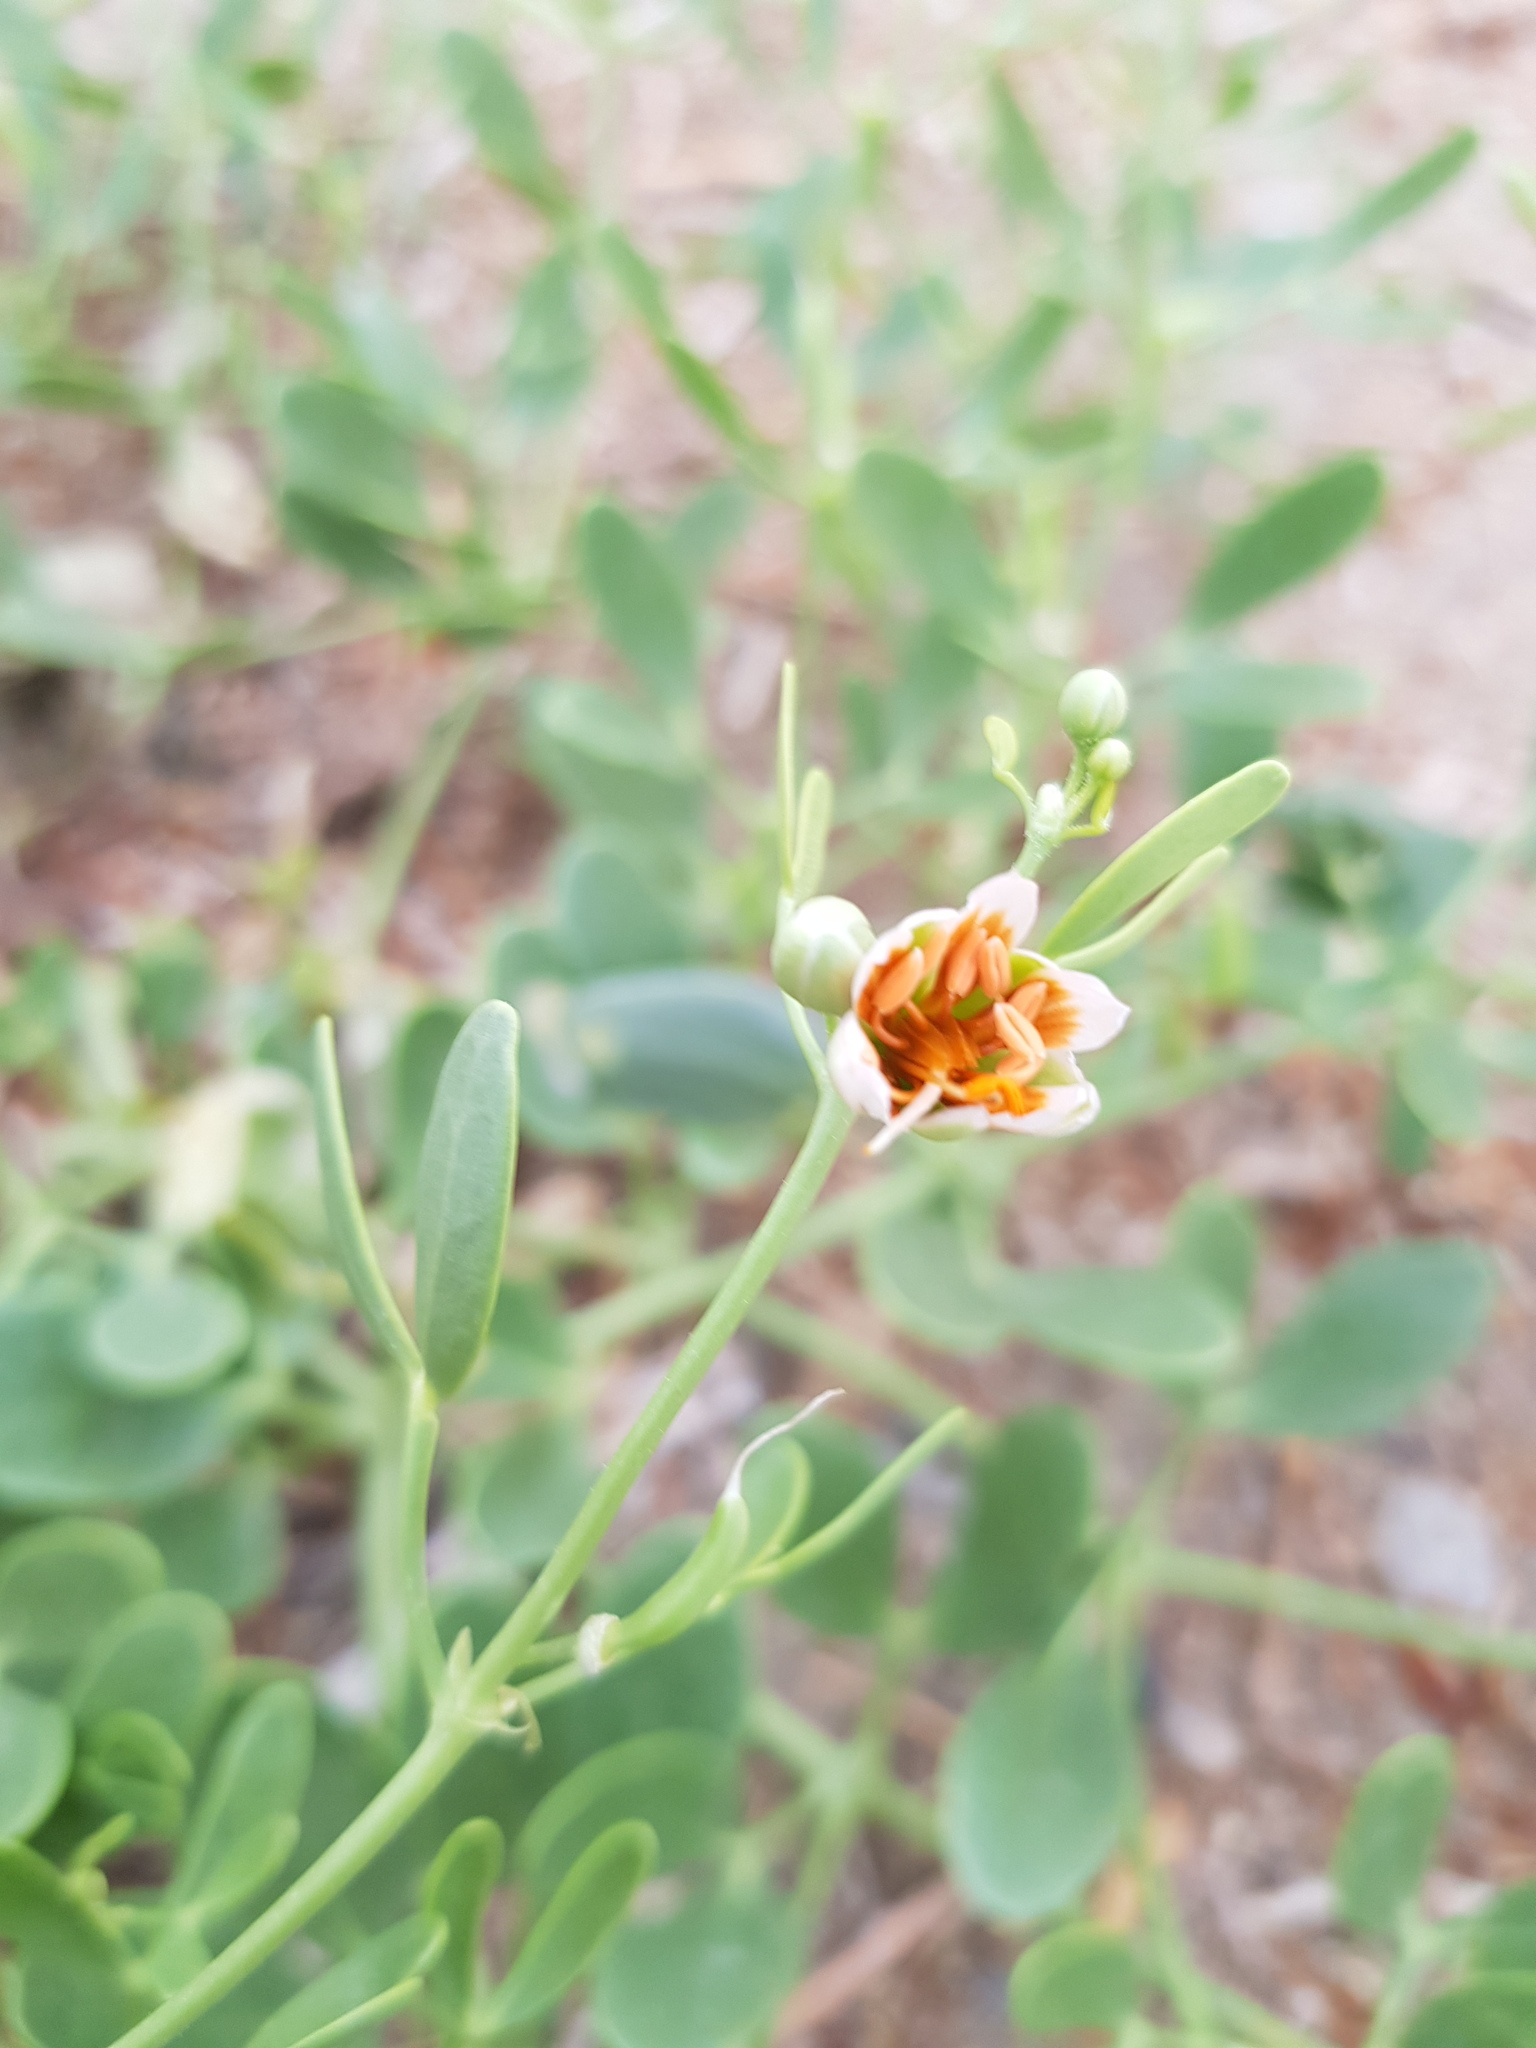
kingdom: Plantae
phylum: Tracheophyta
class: Magnoliopsida
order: Zygophyllales
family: Zygophyllaceae
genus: Zygophyllum
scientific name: Zygophyllum brachypterum
